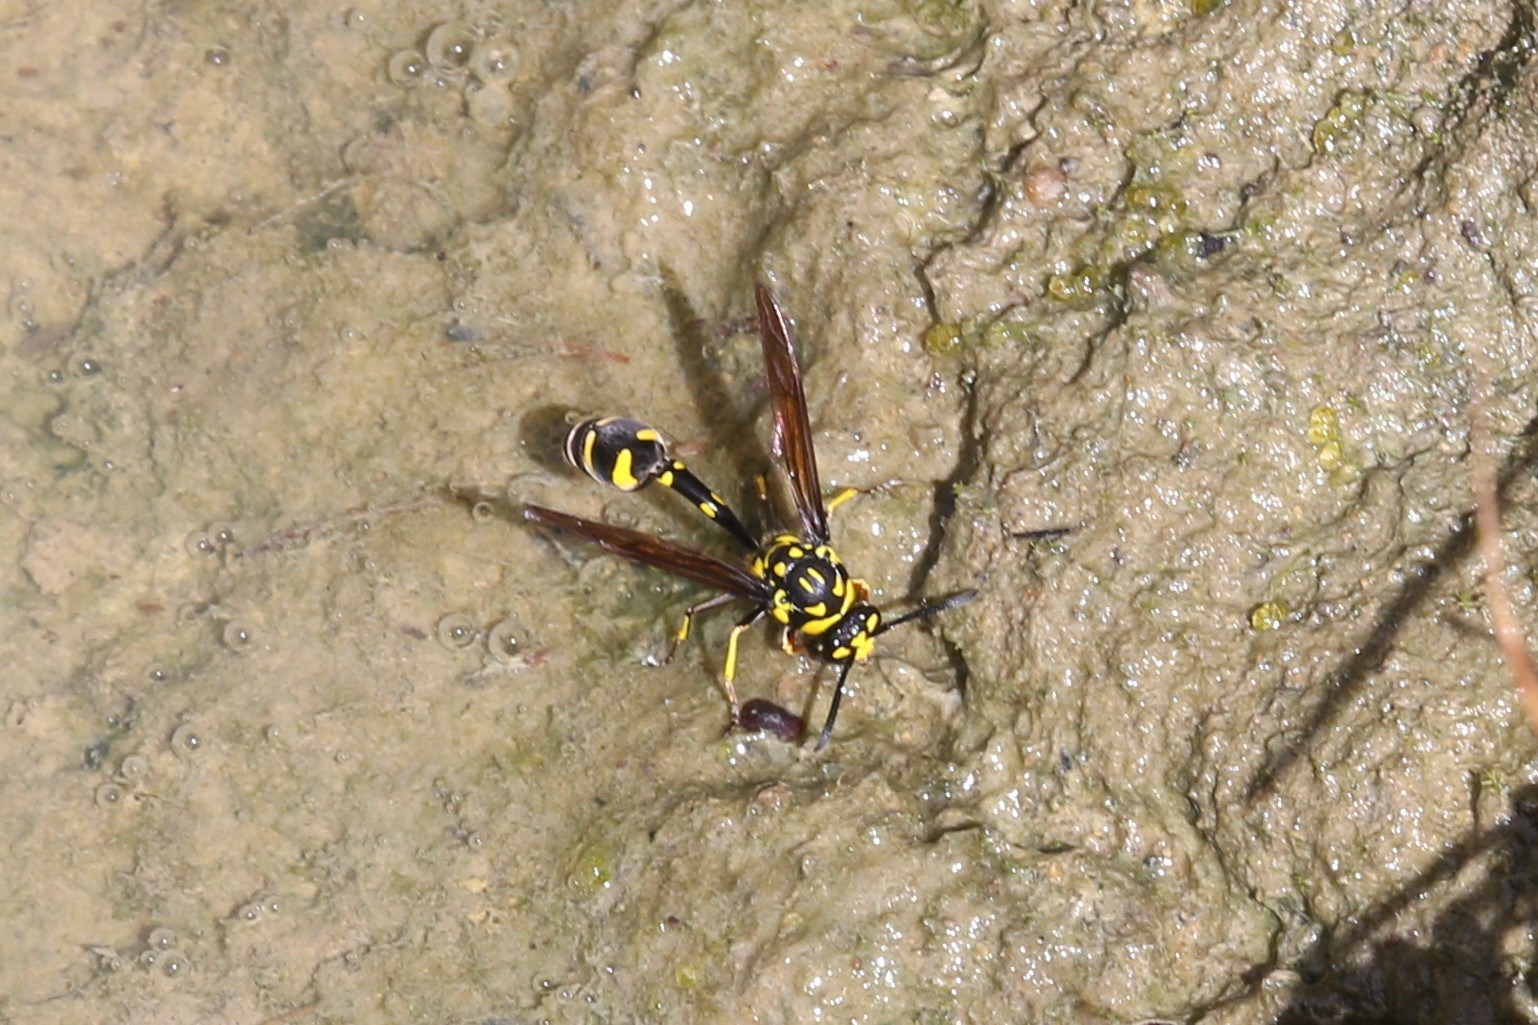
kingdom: Animalia
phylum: Arthropoda
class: Insecta
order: Hymenoptera
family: Eumenidae
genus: Phimenes
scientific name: Phimenes arcuatus
